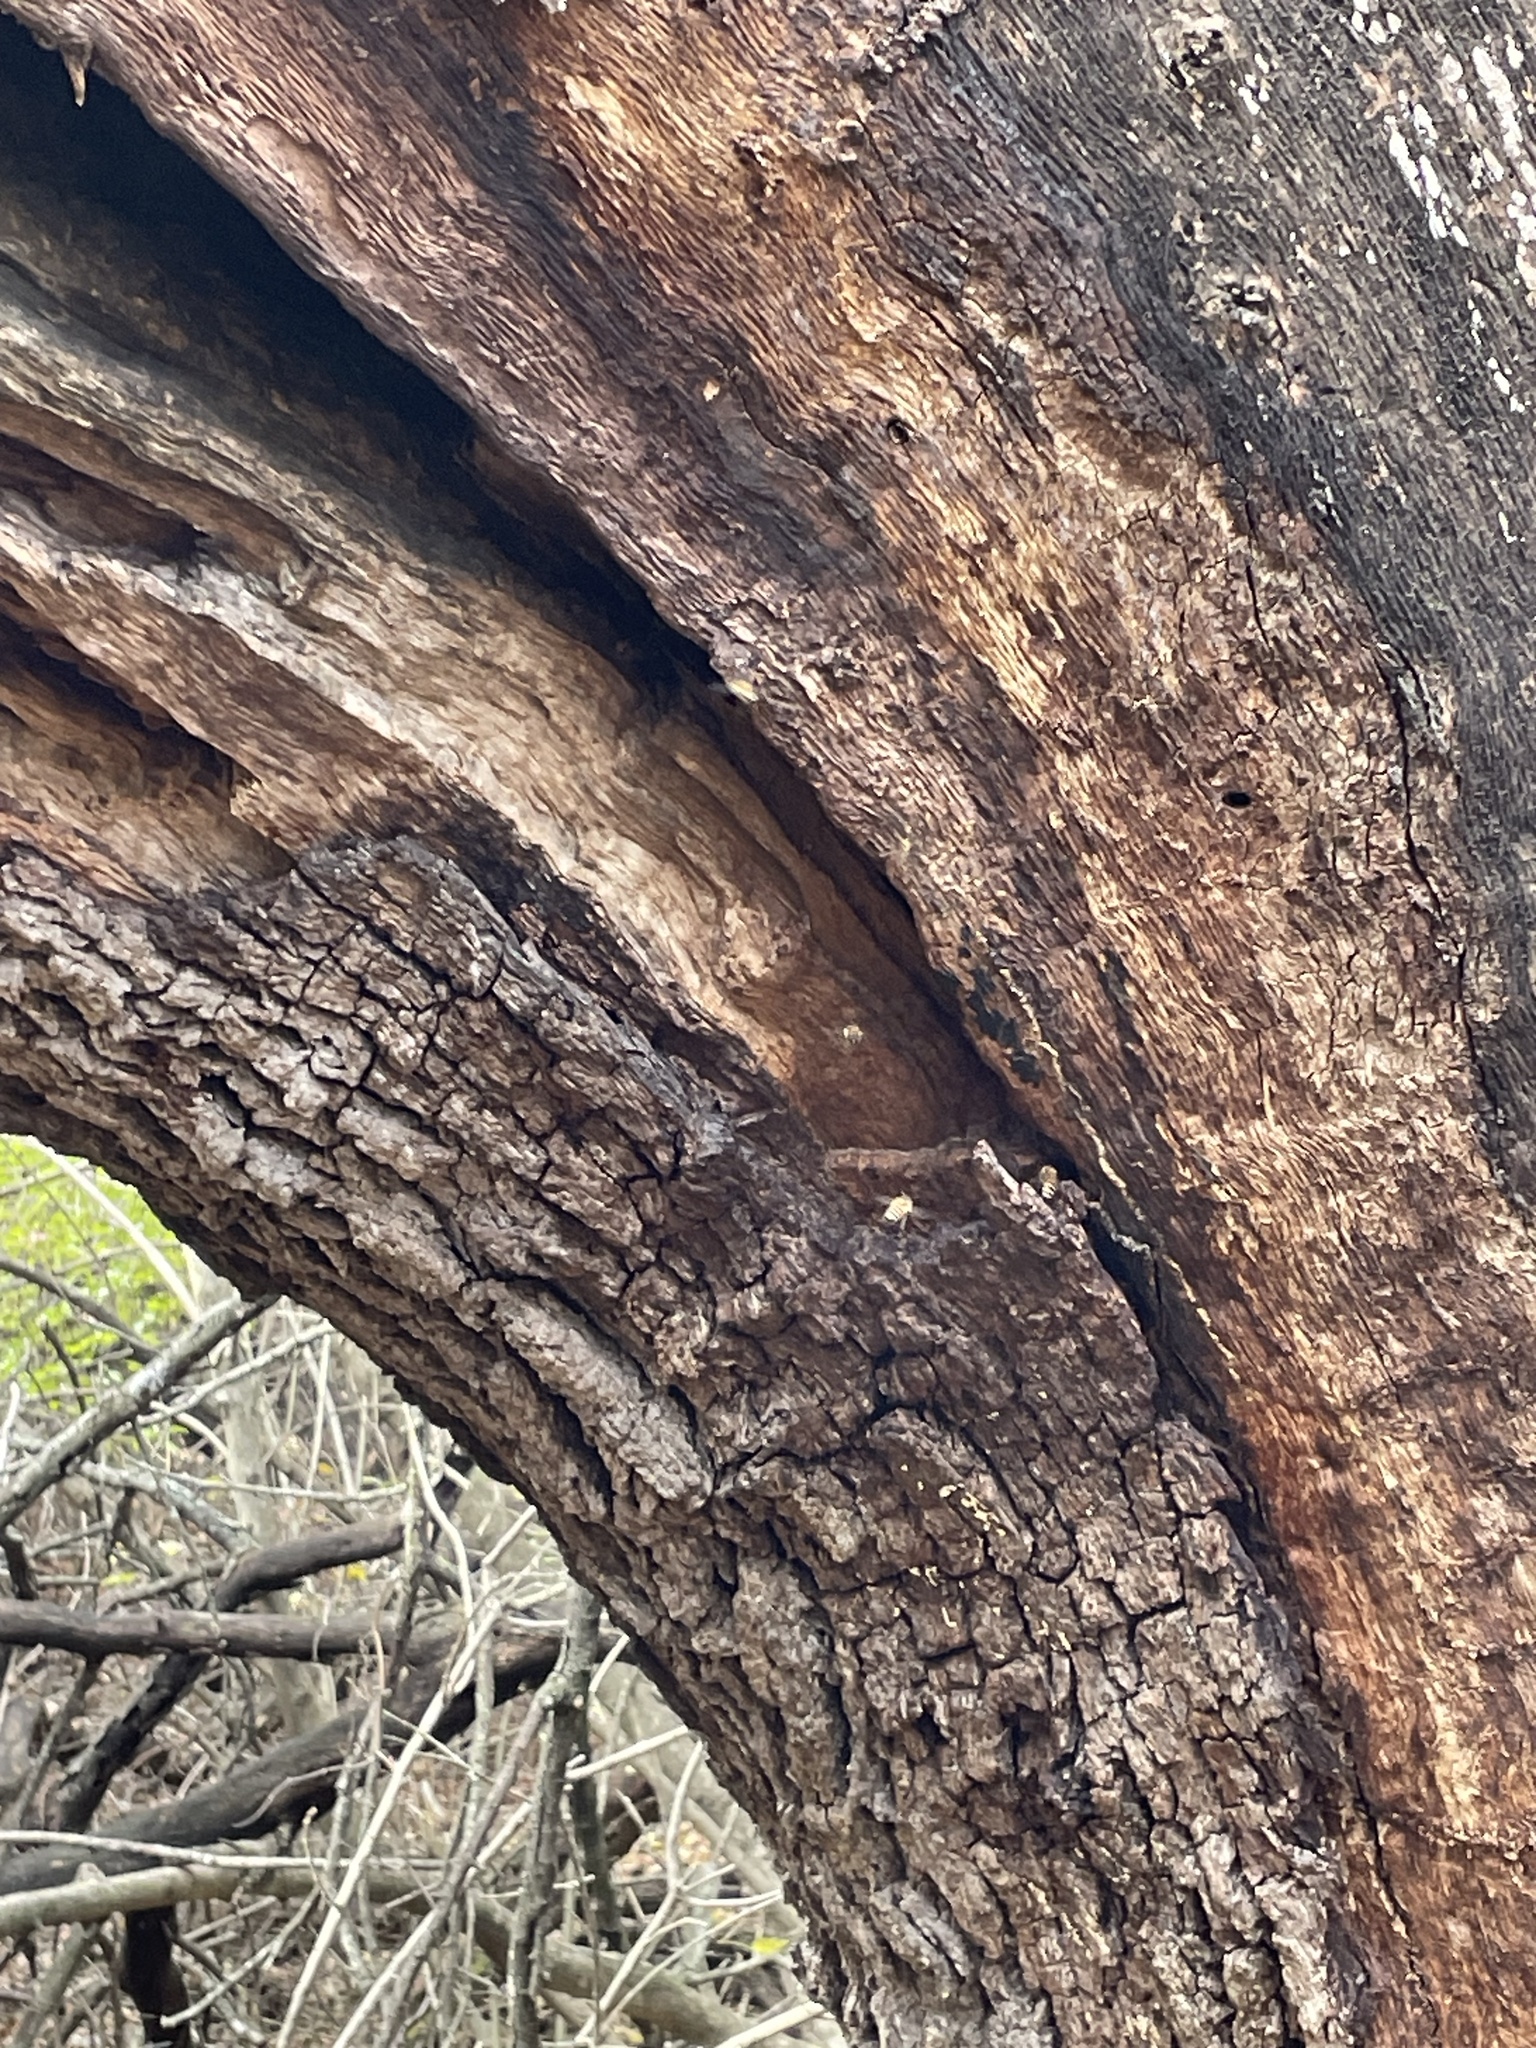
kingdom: Animalia
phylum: Arthropoda
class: Insecta
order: Hymenoptera
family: Apidae
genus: Apis
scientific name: Apis mellifera
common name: Honey bee
